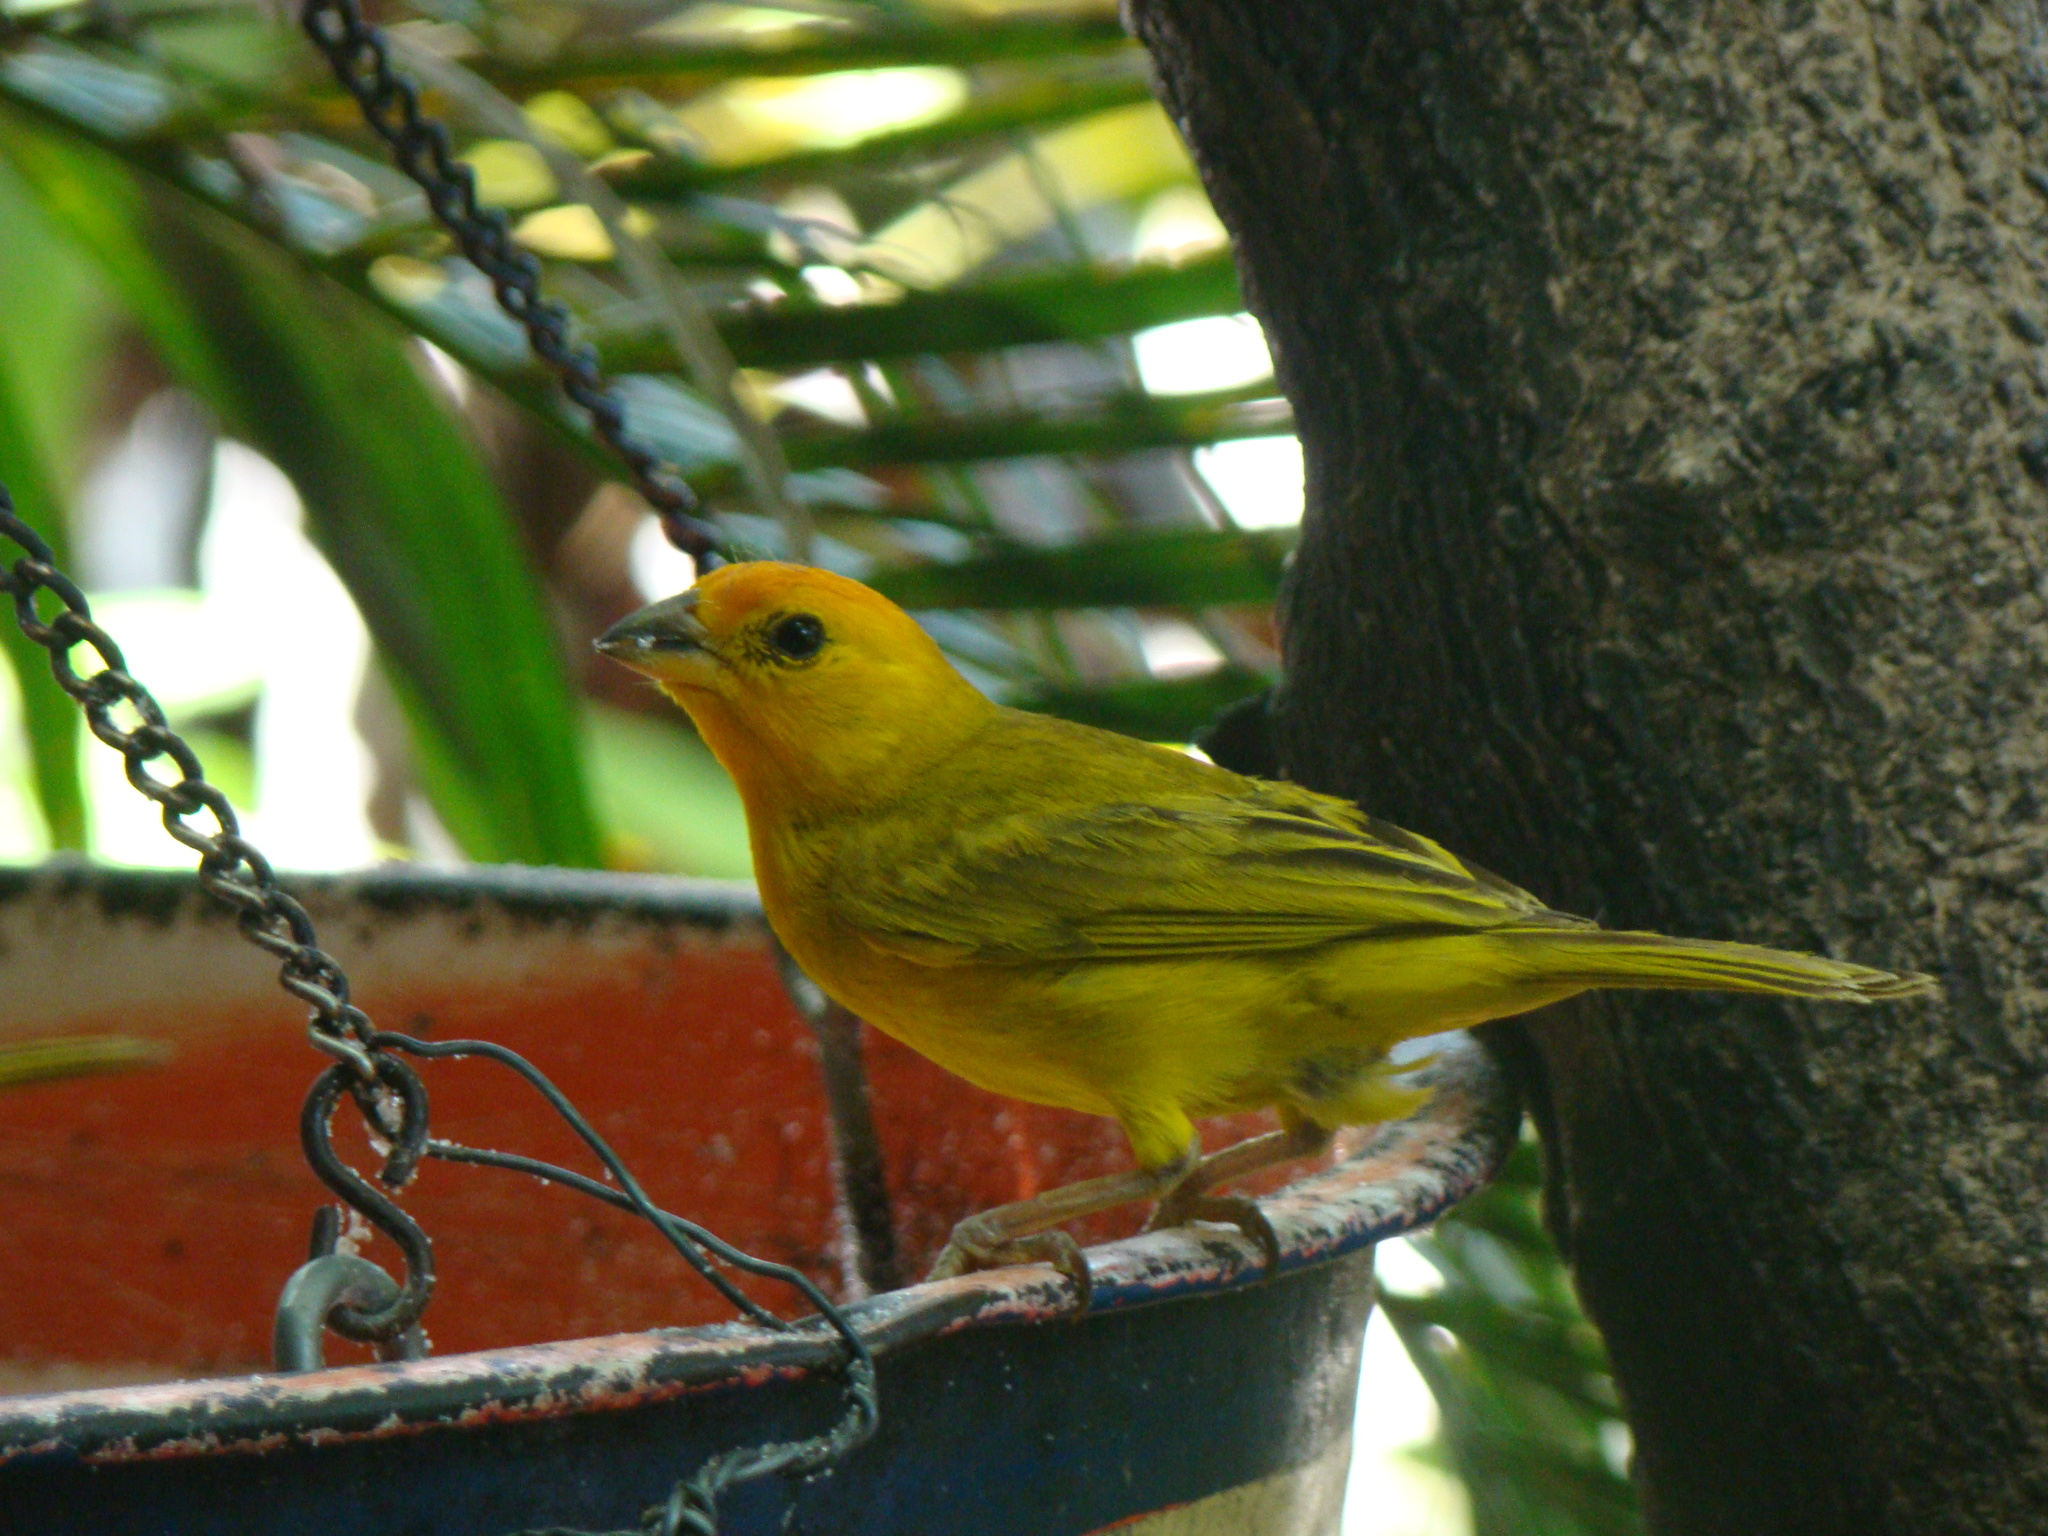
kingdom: Animalia
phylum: Chordata
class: Aves
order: Passeriformes
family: Thraupidae
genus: Sicalis
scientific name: Sicalis flaveola
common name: Saffron finch
